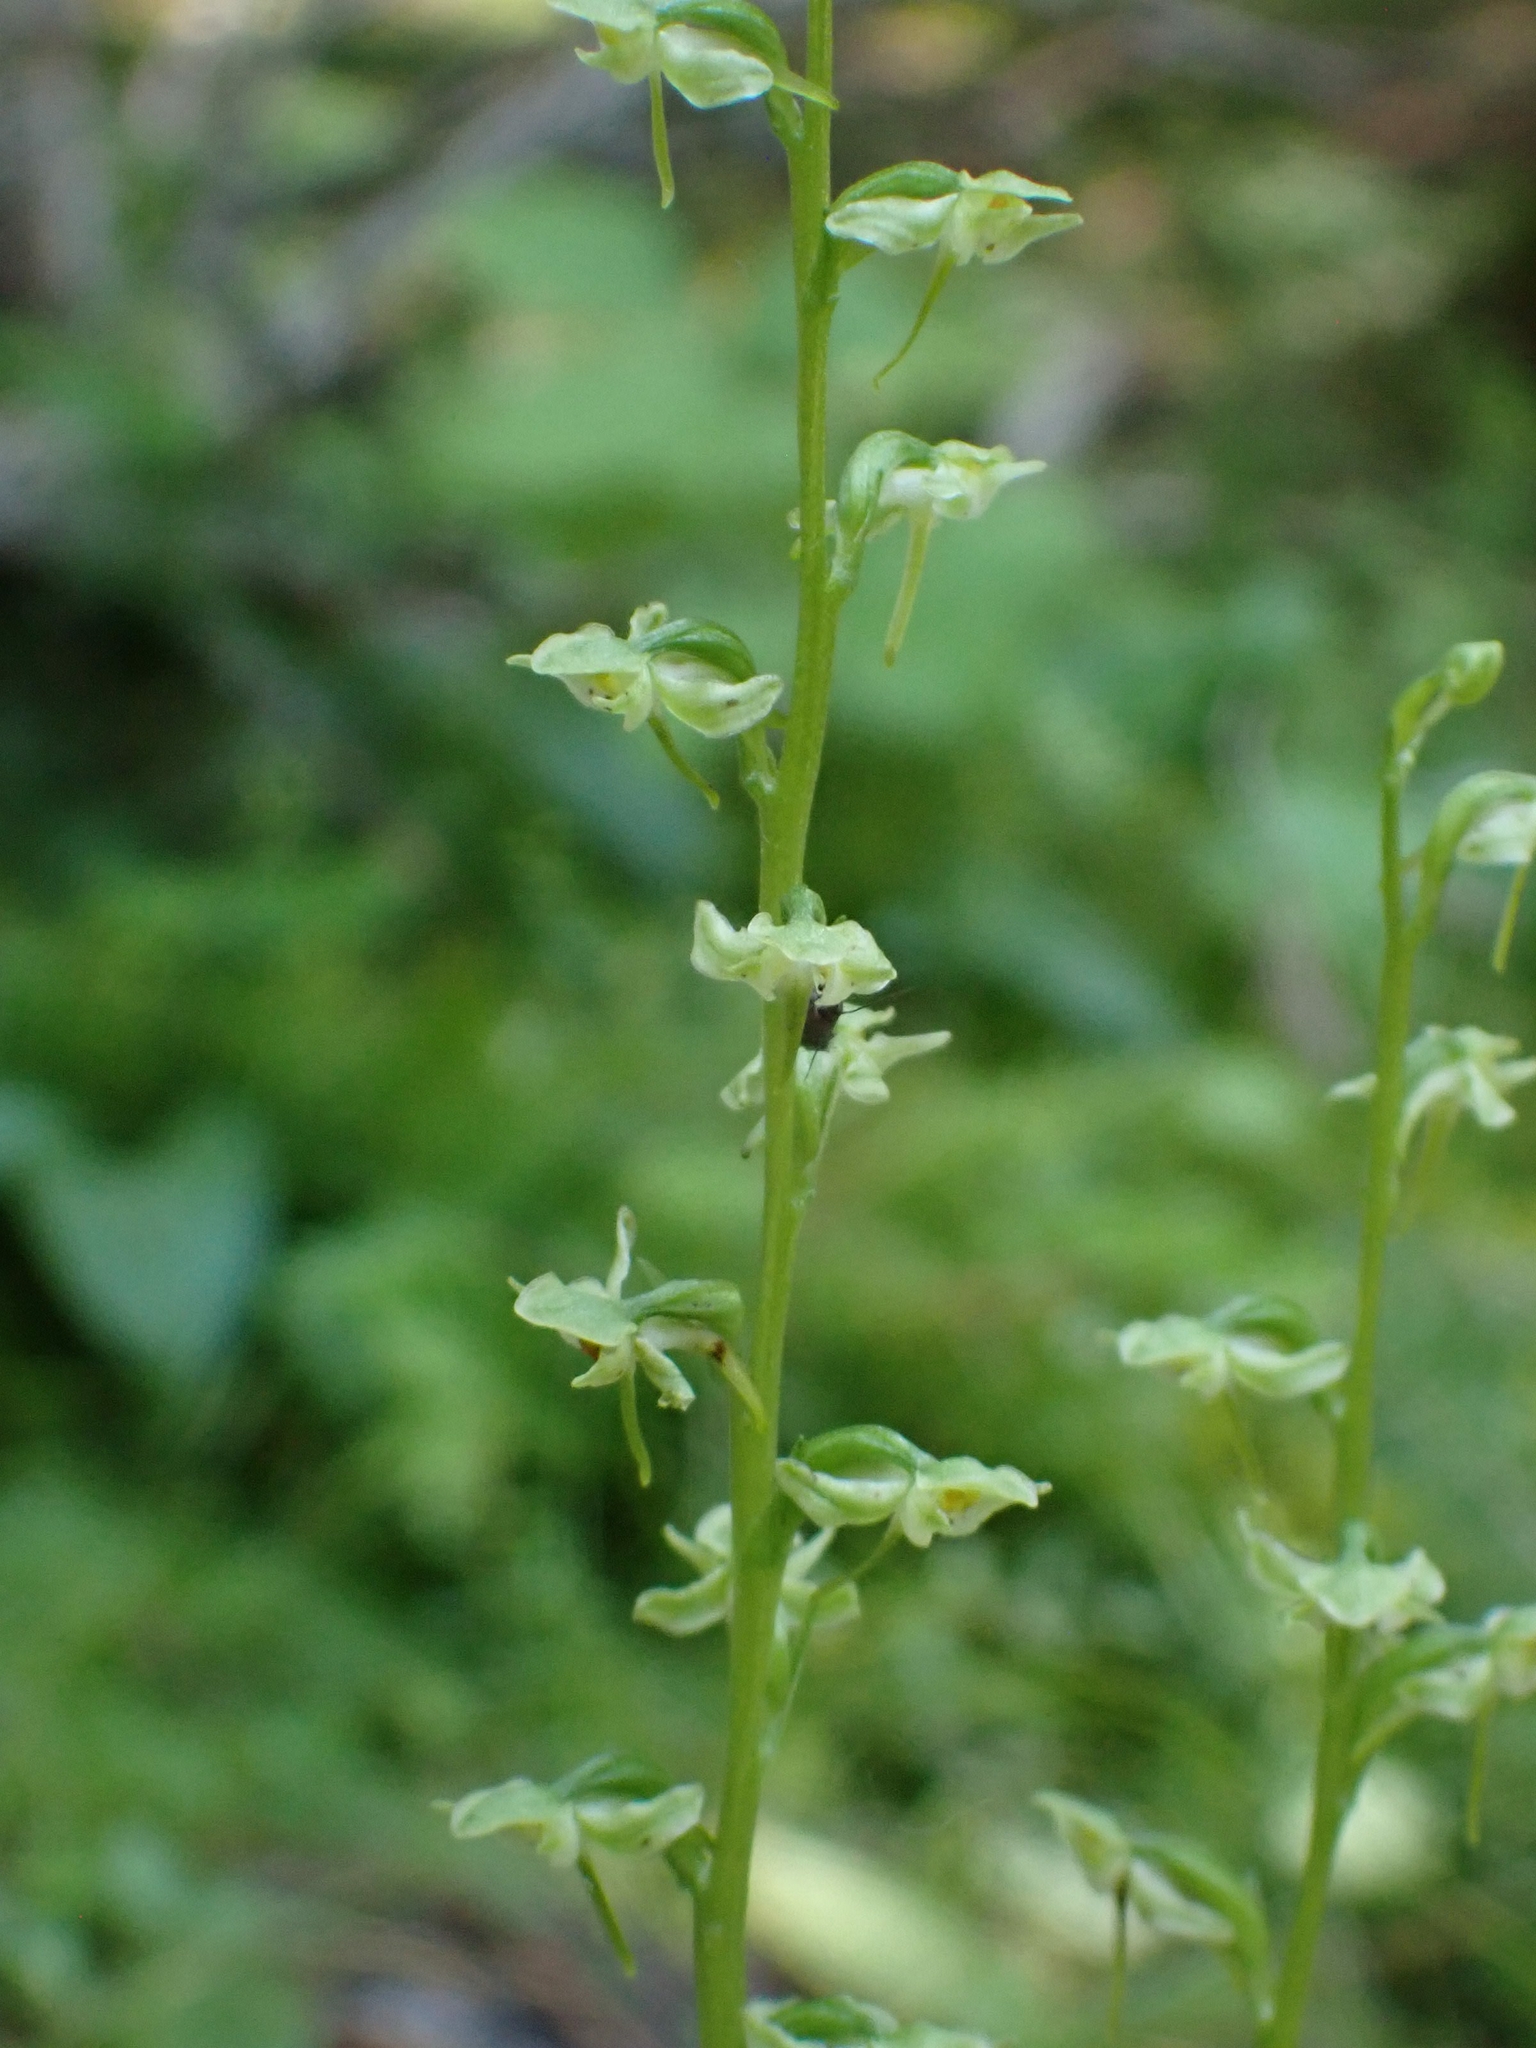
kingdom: Plantae
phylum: Tracheophyta
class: Liliopsida
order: Asparagales
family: Orchidaceae
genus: Platanthera
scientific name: Platanthera obtusata
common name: Blunt bog orchid
